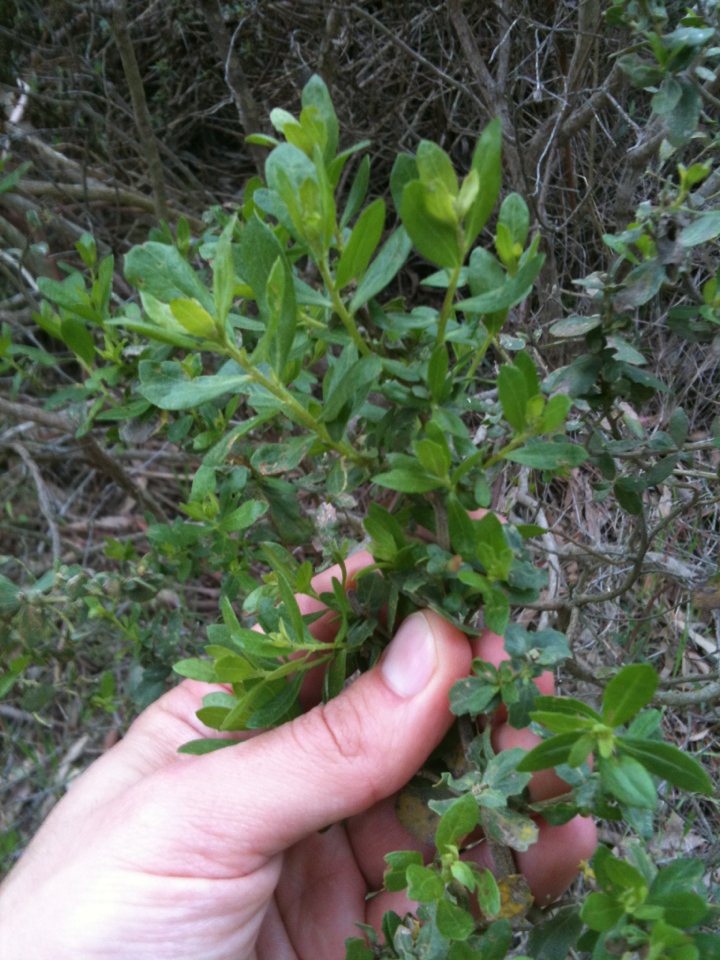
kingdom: Plantae
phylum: Tracheophyta
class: Magnoliopsida
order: Asterales
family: Asteraceae
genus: Baccharis
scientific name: Baccharis pilularis
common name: Coyotebrush
